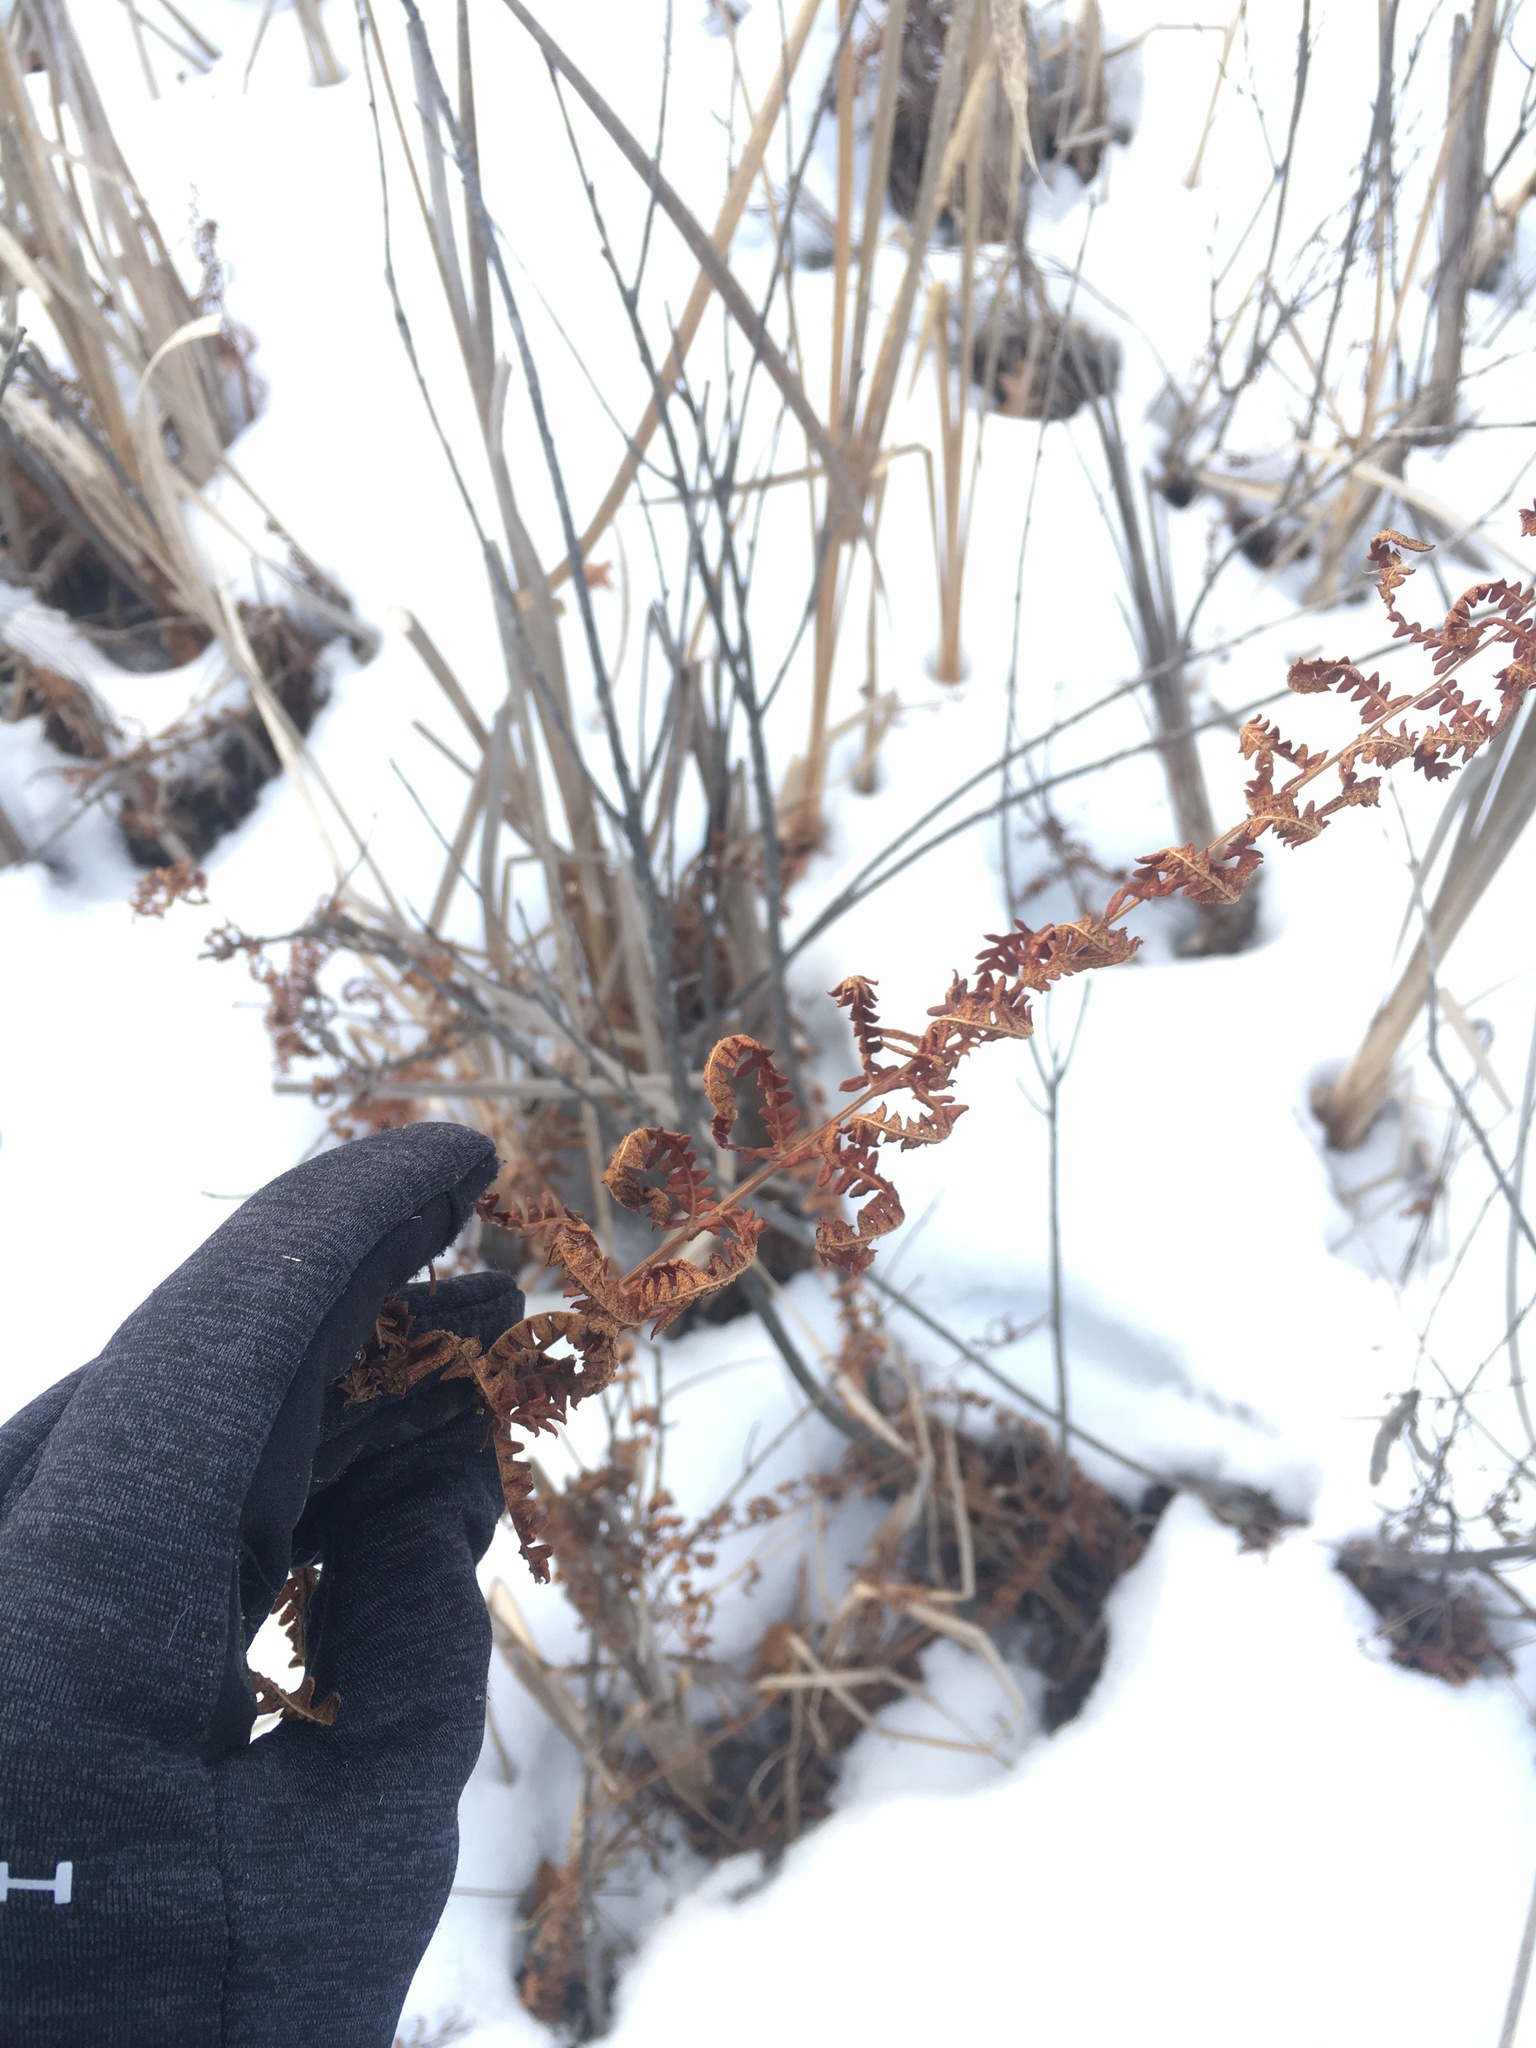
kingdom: Plantae
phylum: Tracheophyta
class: Polypodiopsida
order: Polypodiales
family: Thelypteridaceae
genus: Thelypteris
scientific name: Thelypteris palustris
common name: Marsh fern
